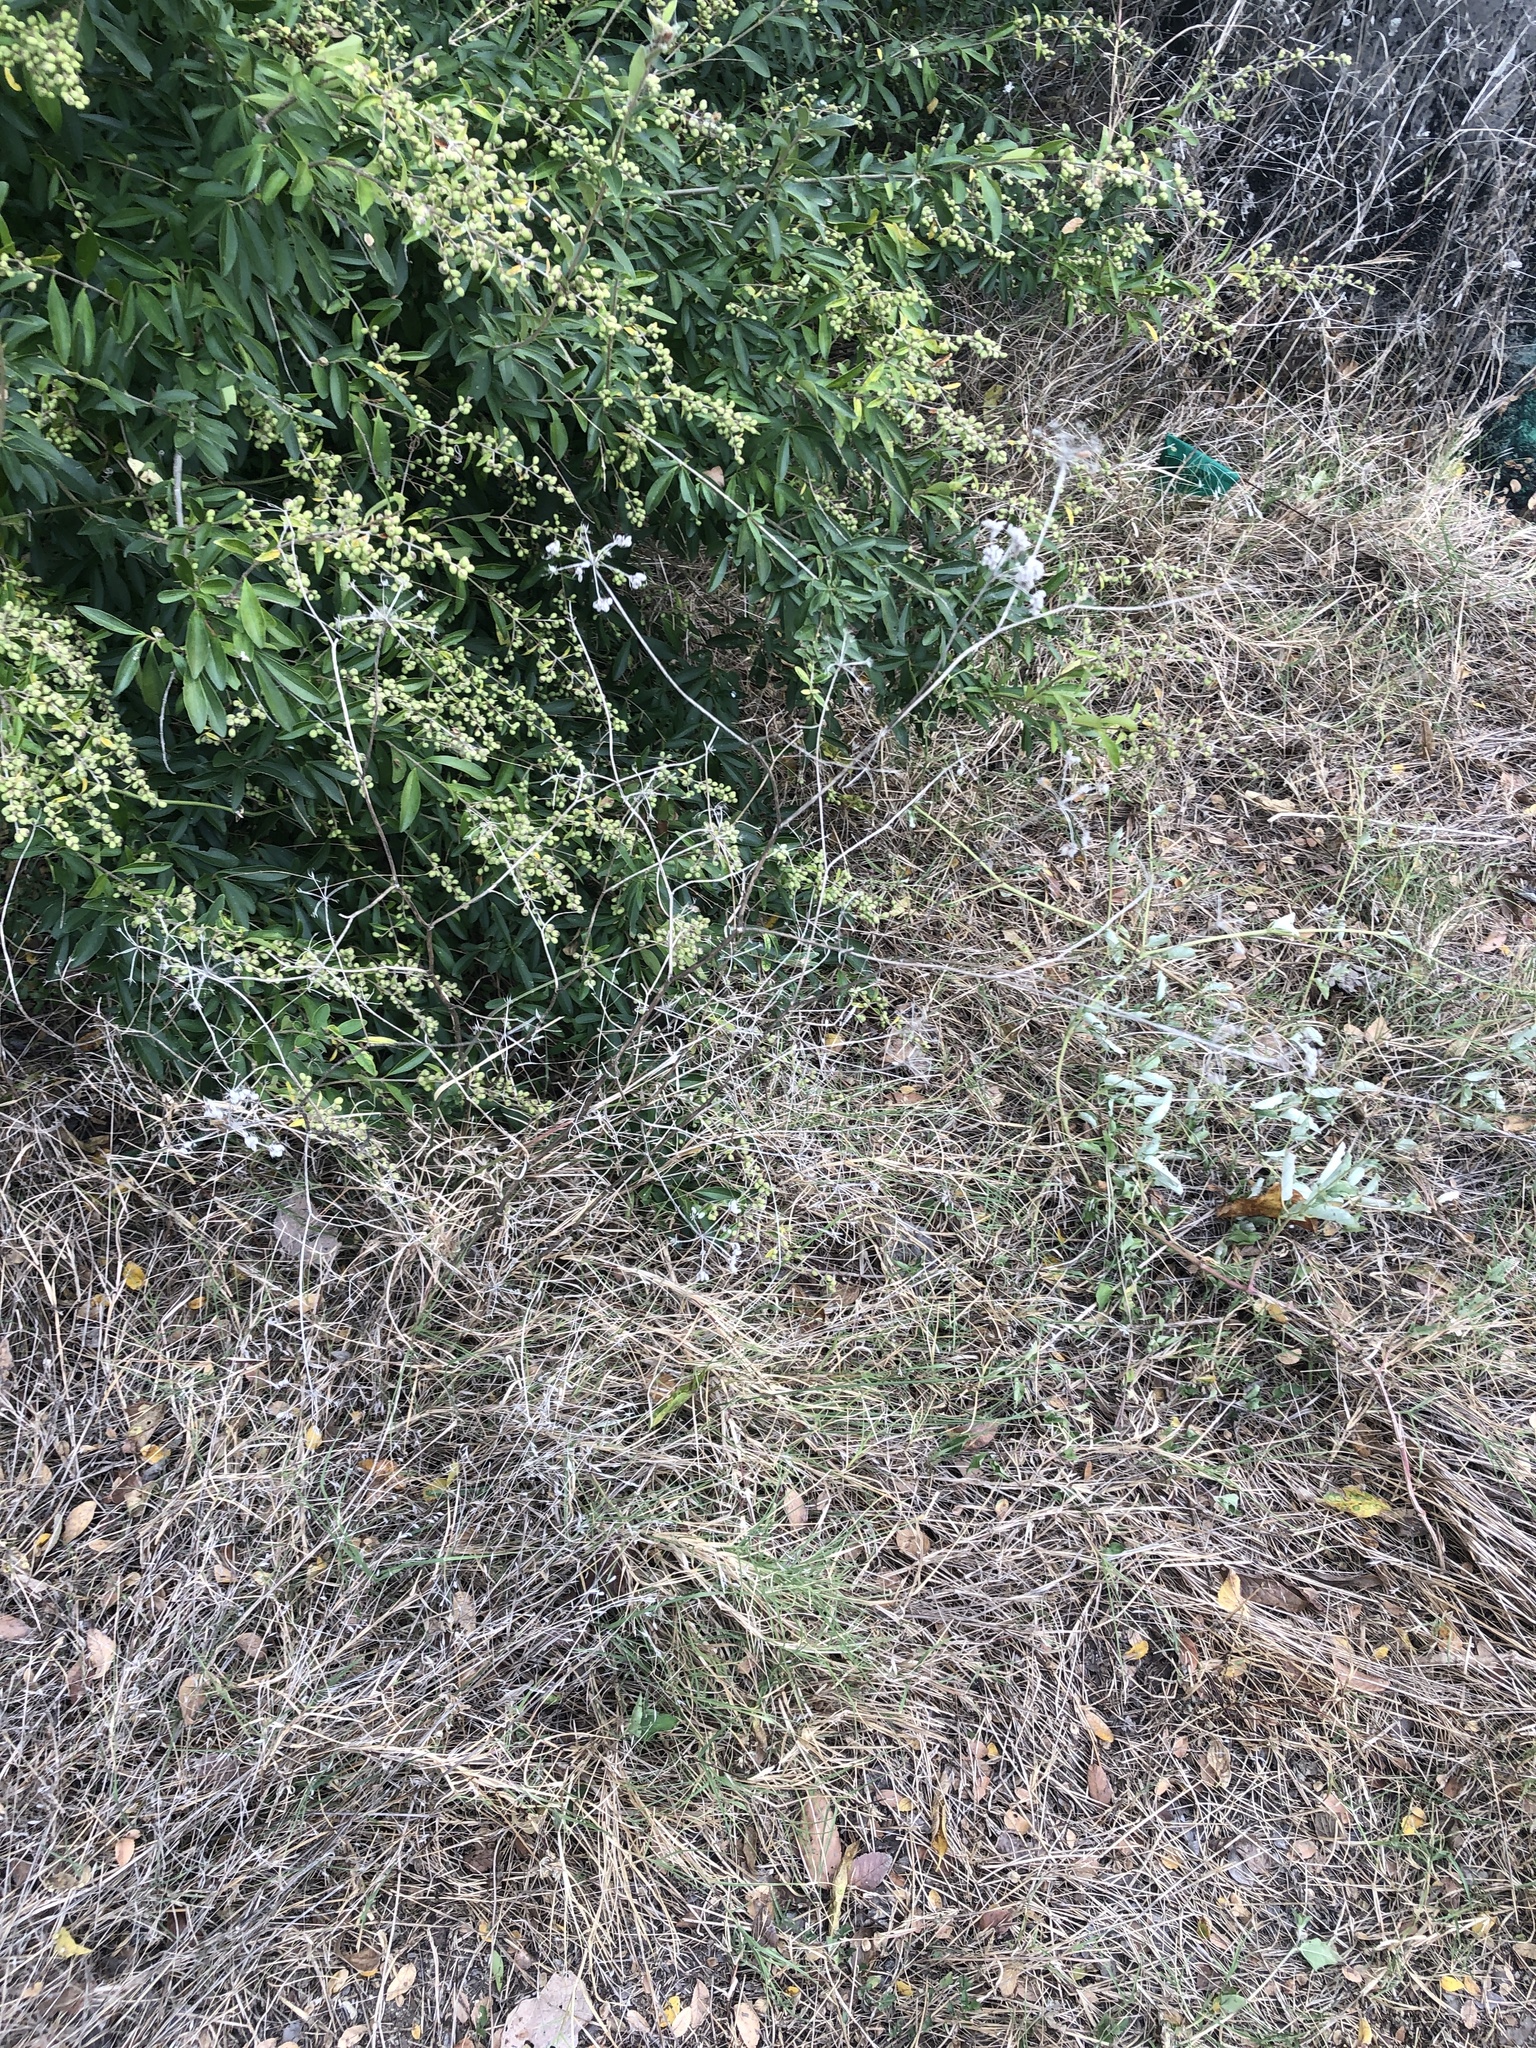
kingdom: Plantae
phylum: Tracheophyta
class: Magnoliopsida
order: Apiales
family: Apiaceae
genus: Torilis
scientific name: Torilis arvensis
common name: Spreading hedge-parsley
